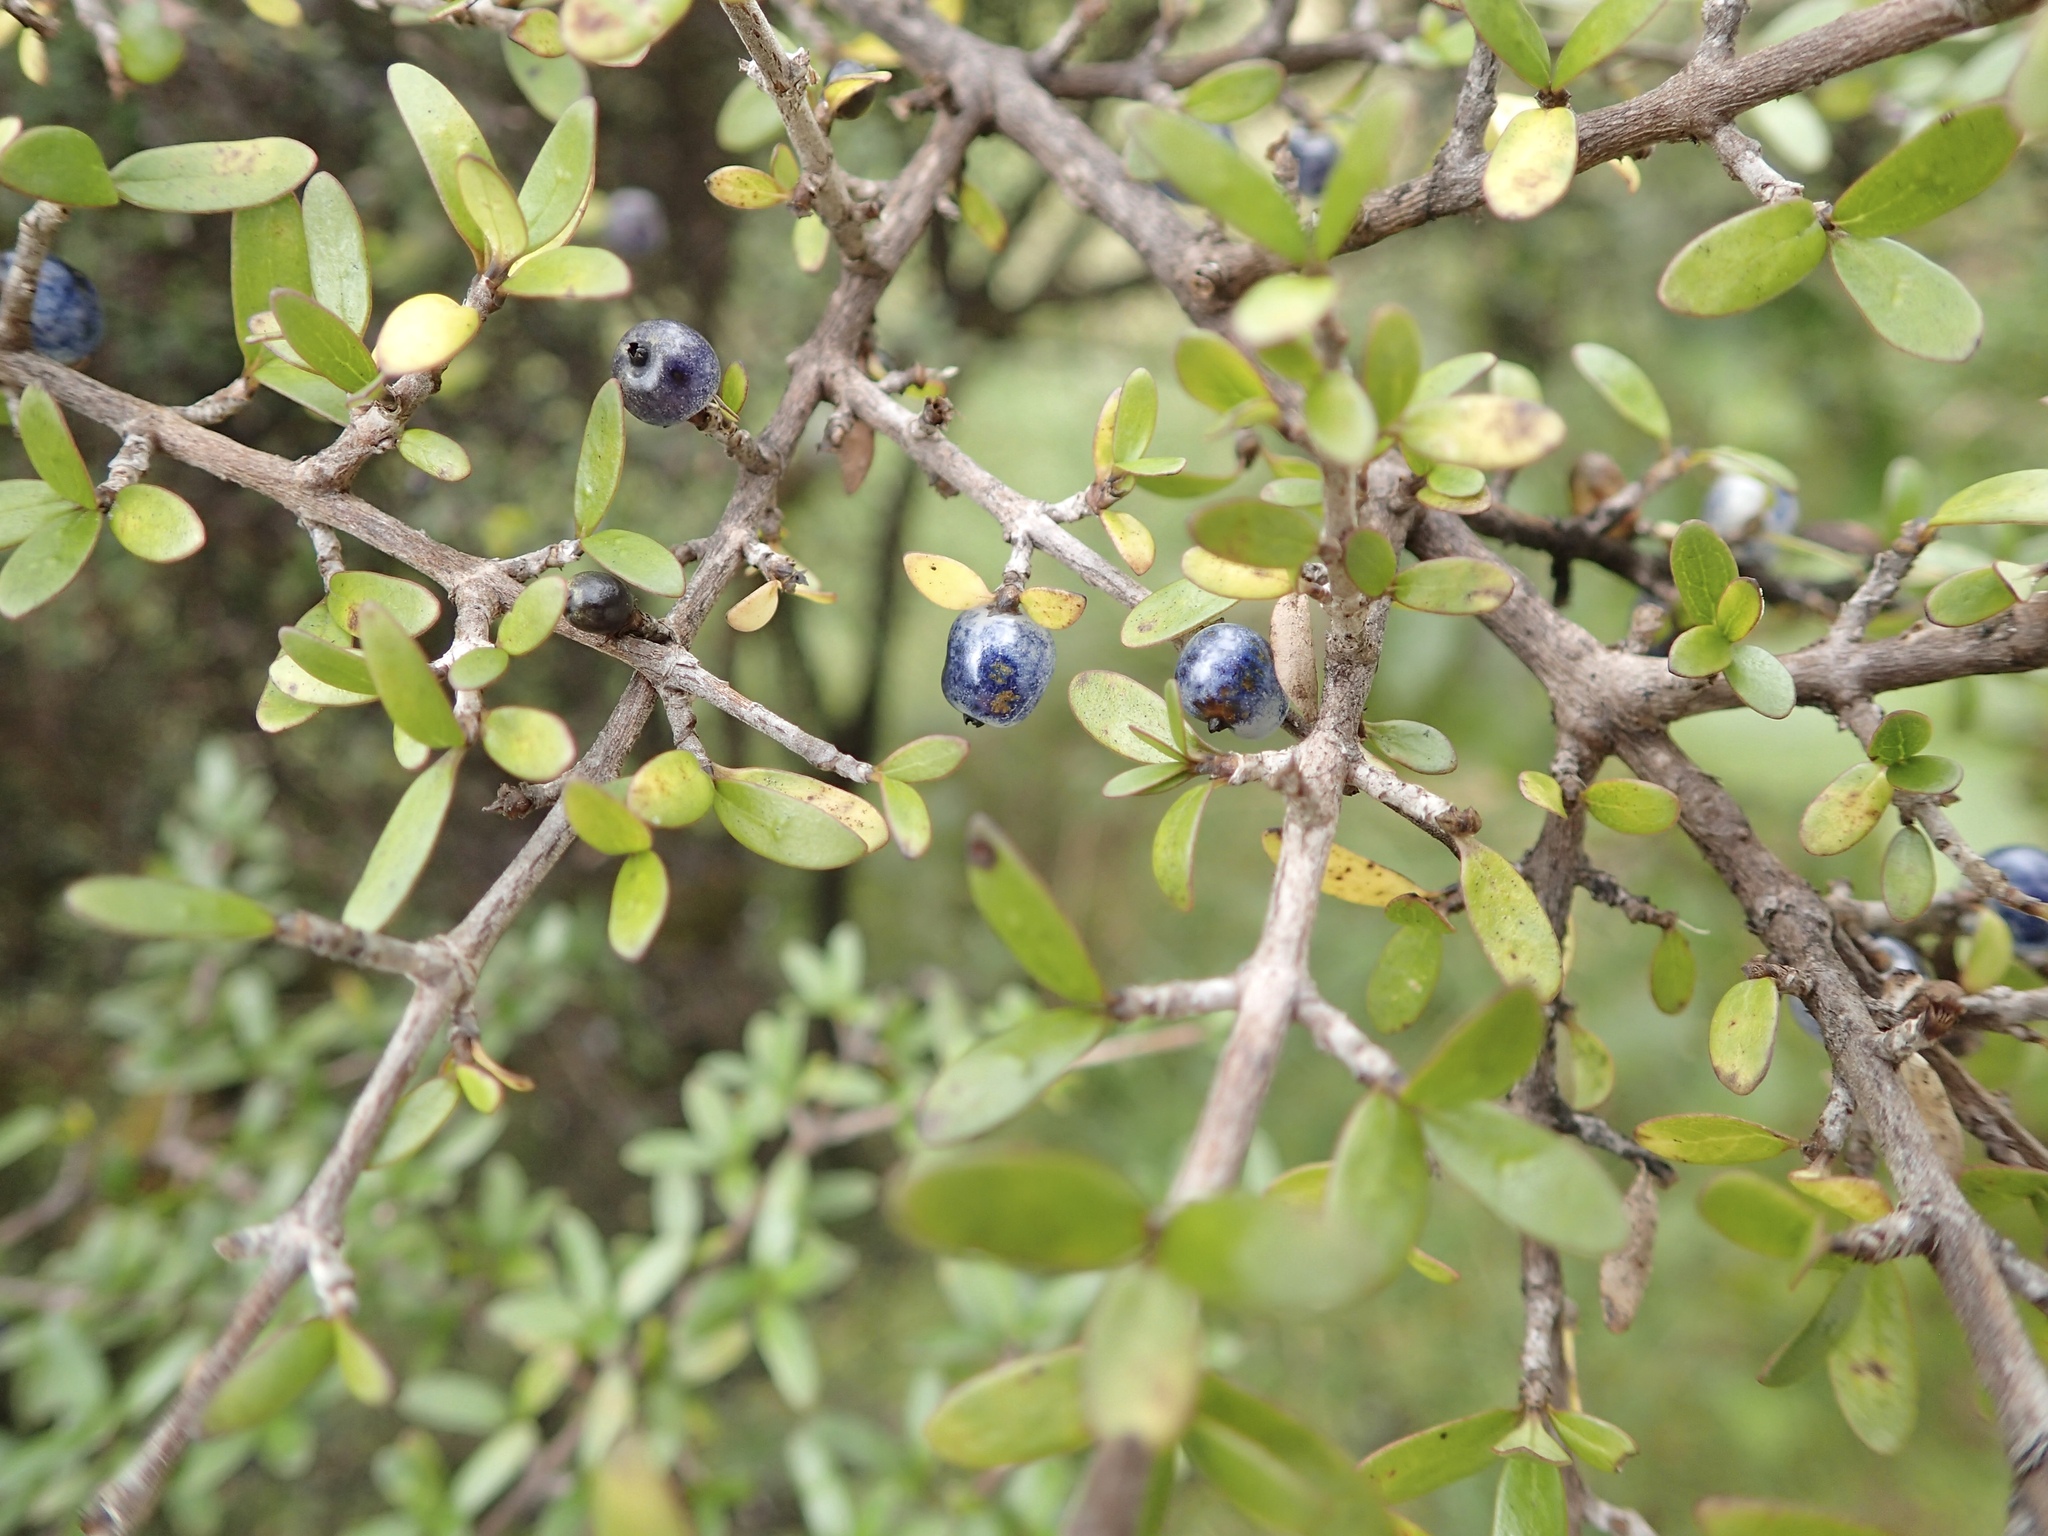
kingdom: Plantae
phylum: Tracheophyta
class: Magnoliopsida
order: Gentianales
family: Rubiaceae
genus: Coprosma
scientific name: Coprosma propinqua
